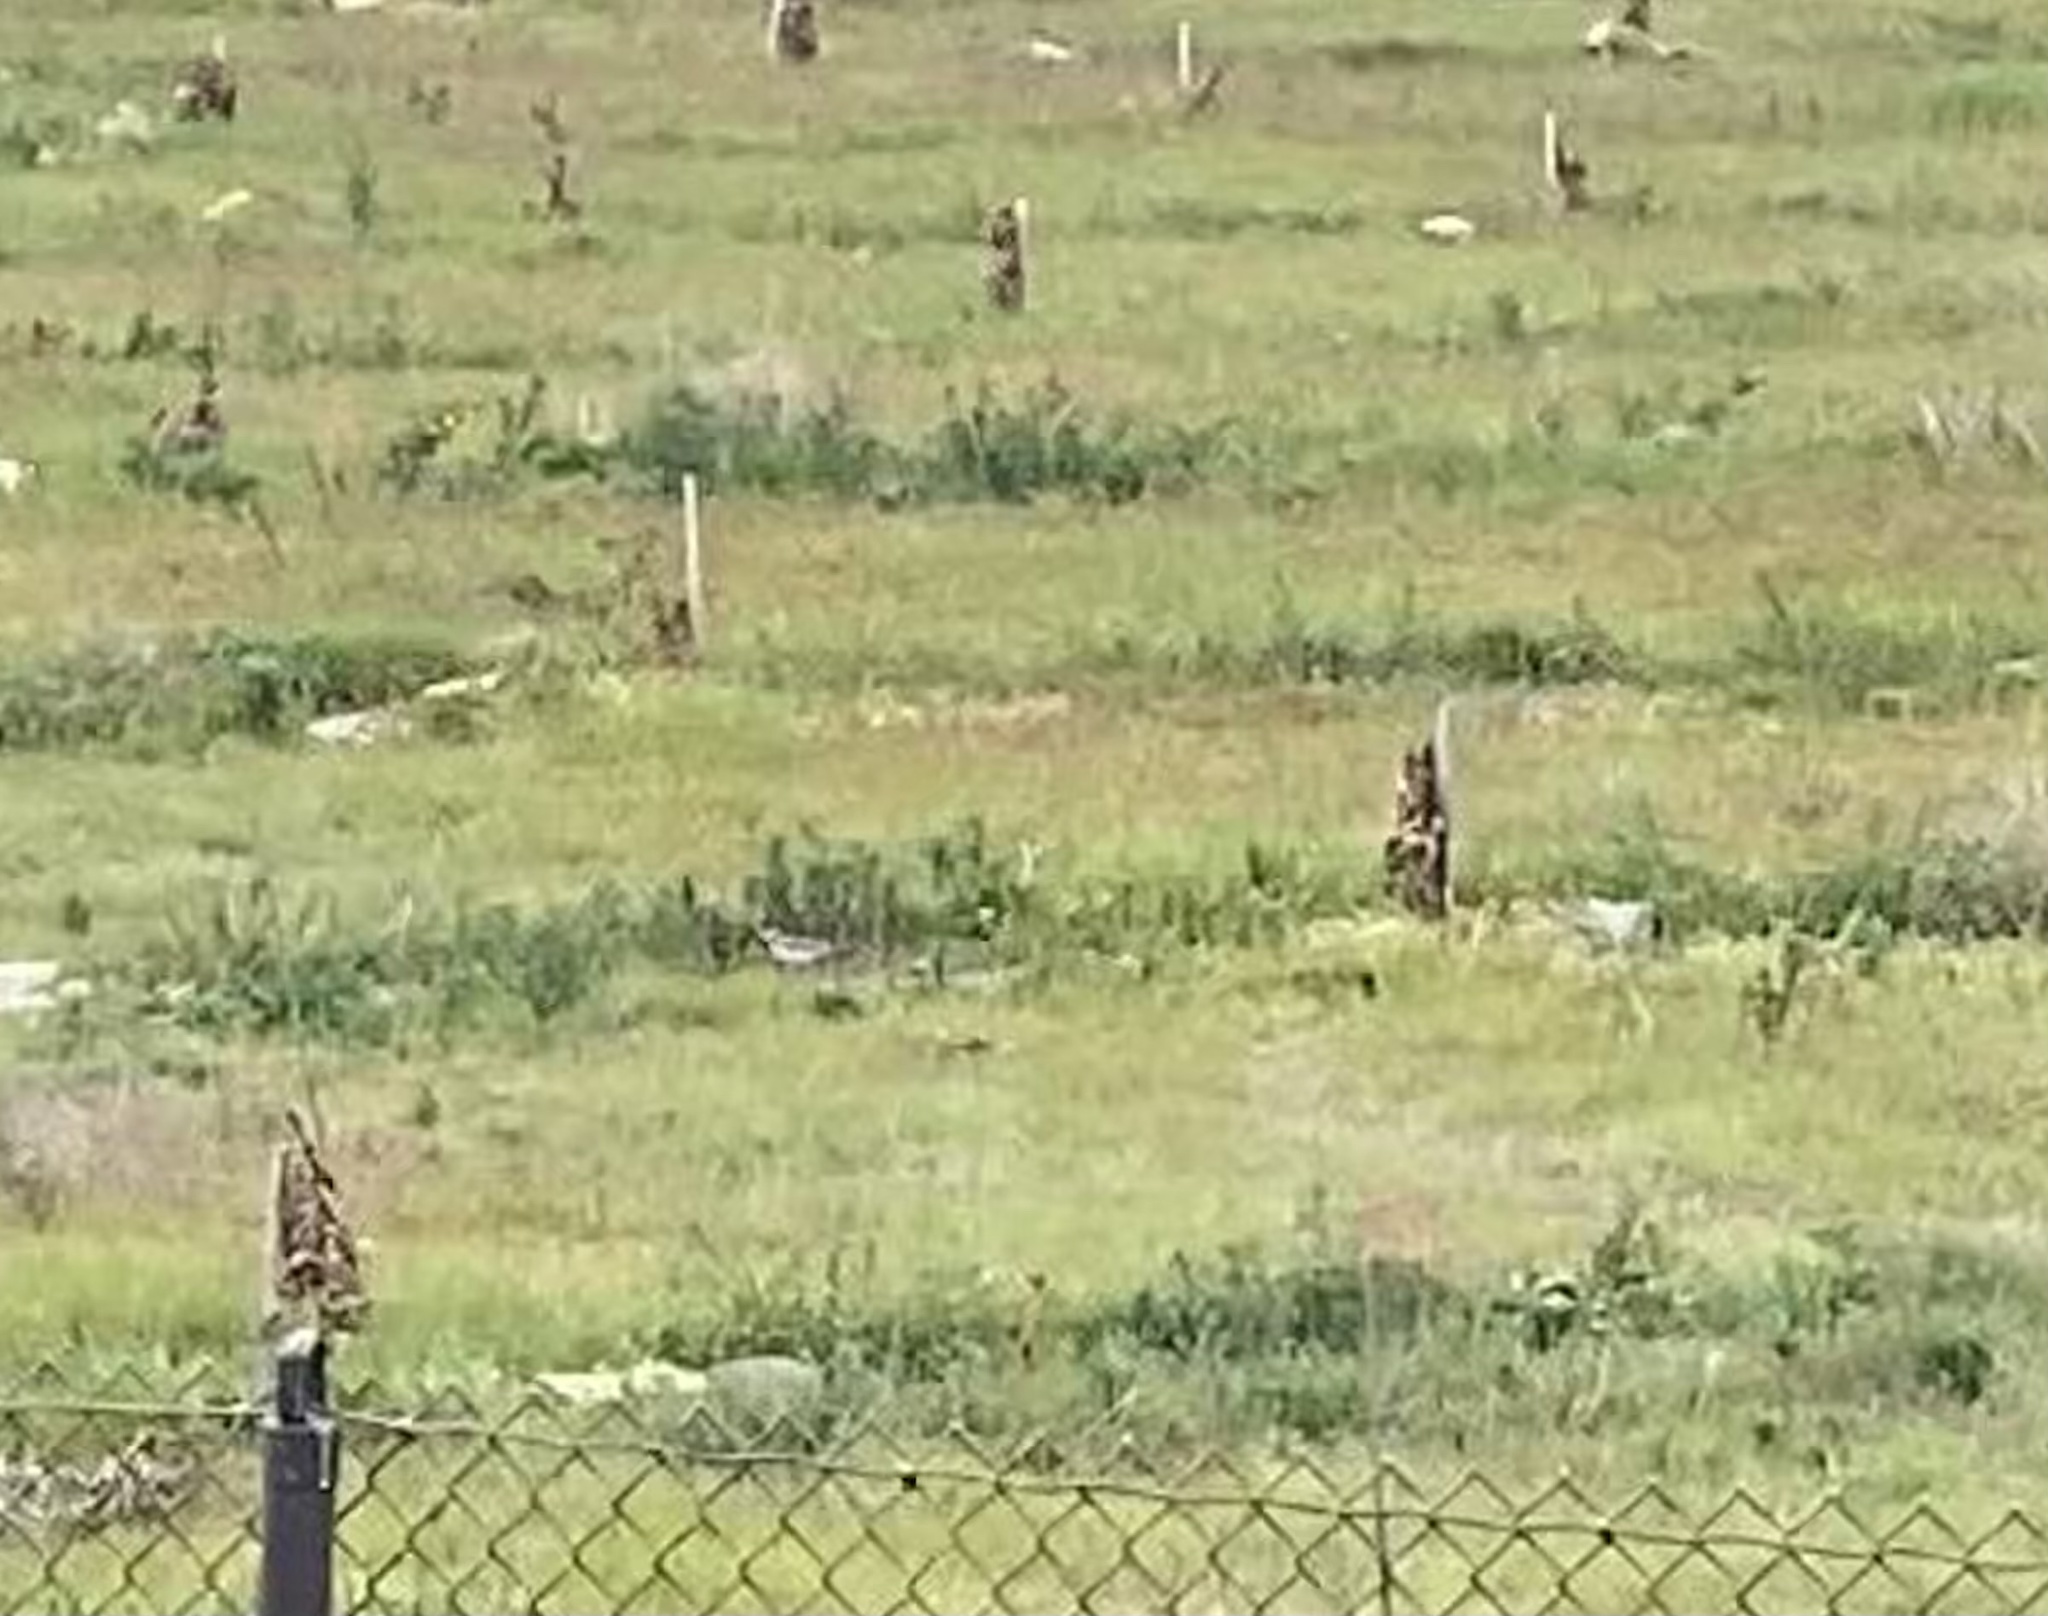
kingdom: Animalia
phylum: Chordata
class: Aves
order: Charadriiformes
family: Charadriidae
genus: Charadrius
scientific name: Charadrius vociferus
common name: Killdeer
